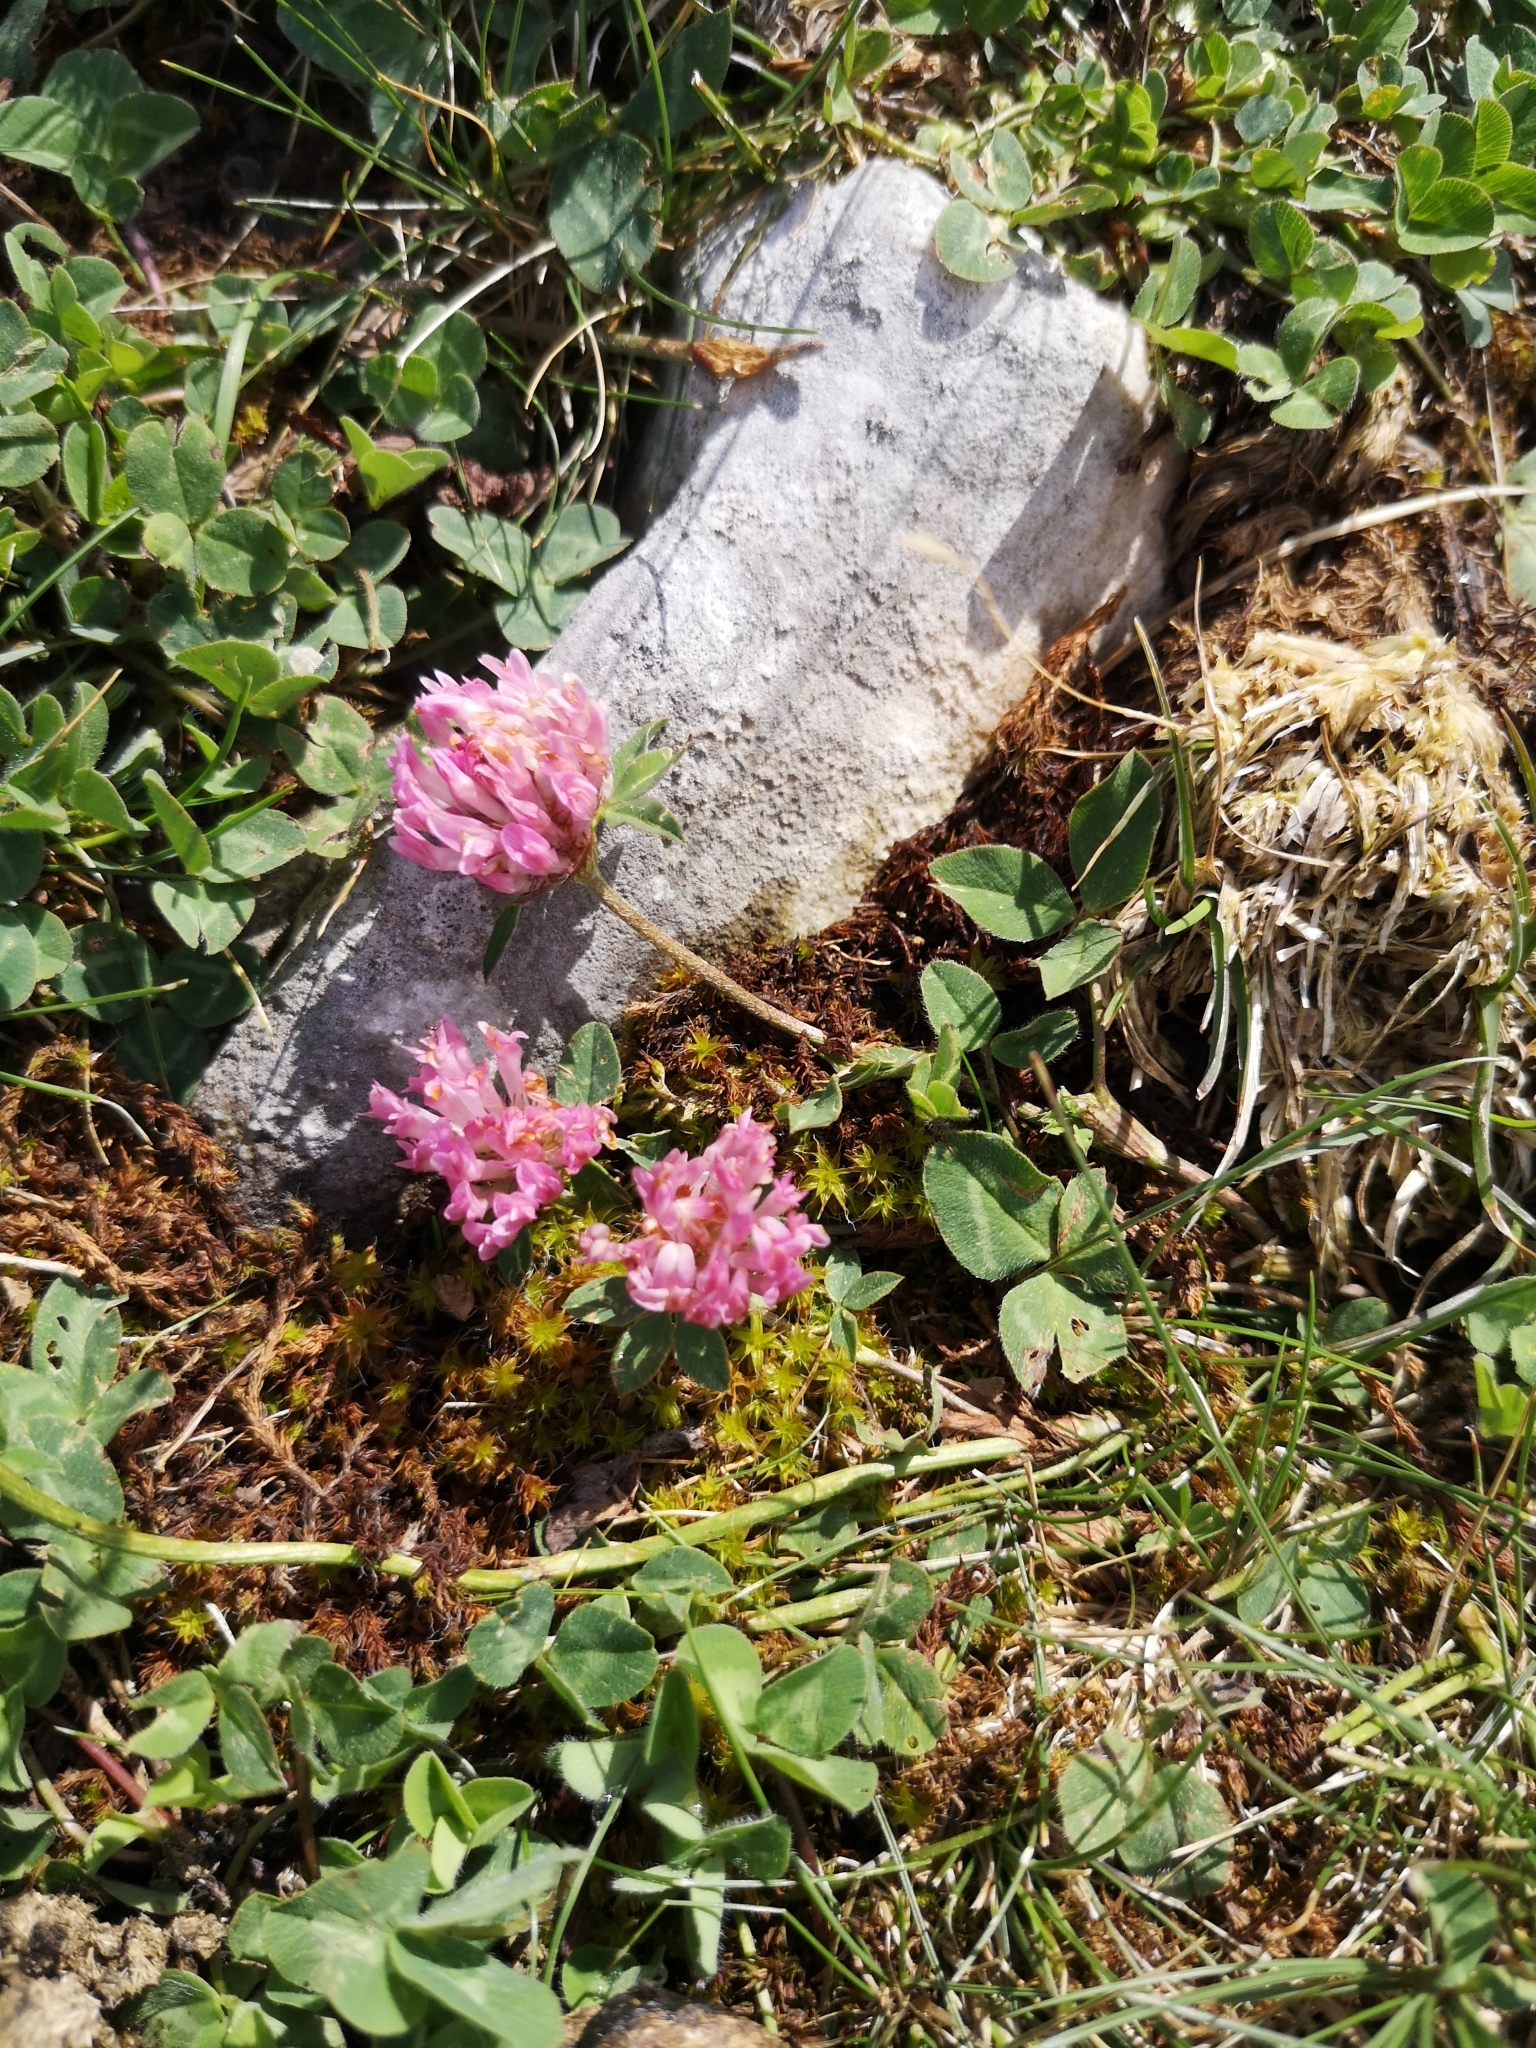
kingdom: Plantae
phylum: Tracheophyta
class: Magnoliopsida
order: Fabales
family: Fabaceae
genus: Trifolium
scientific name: Trifolium pratense
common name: Red clover
